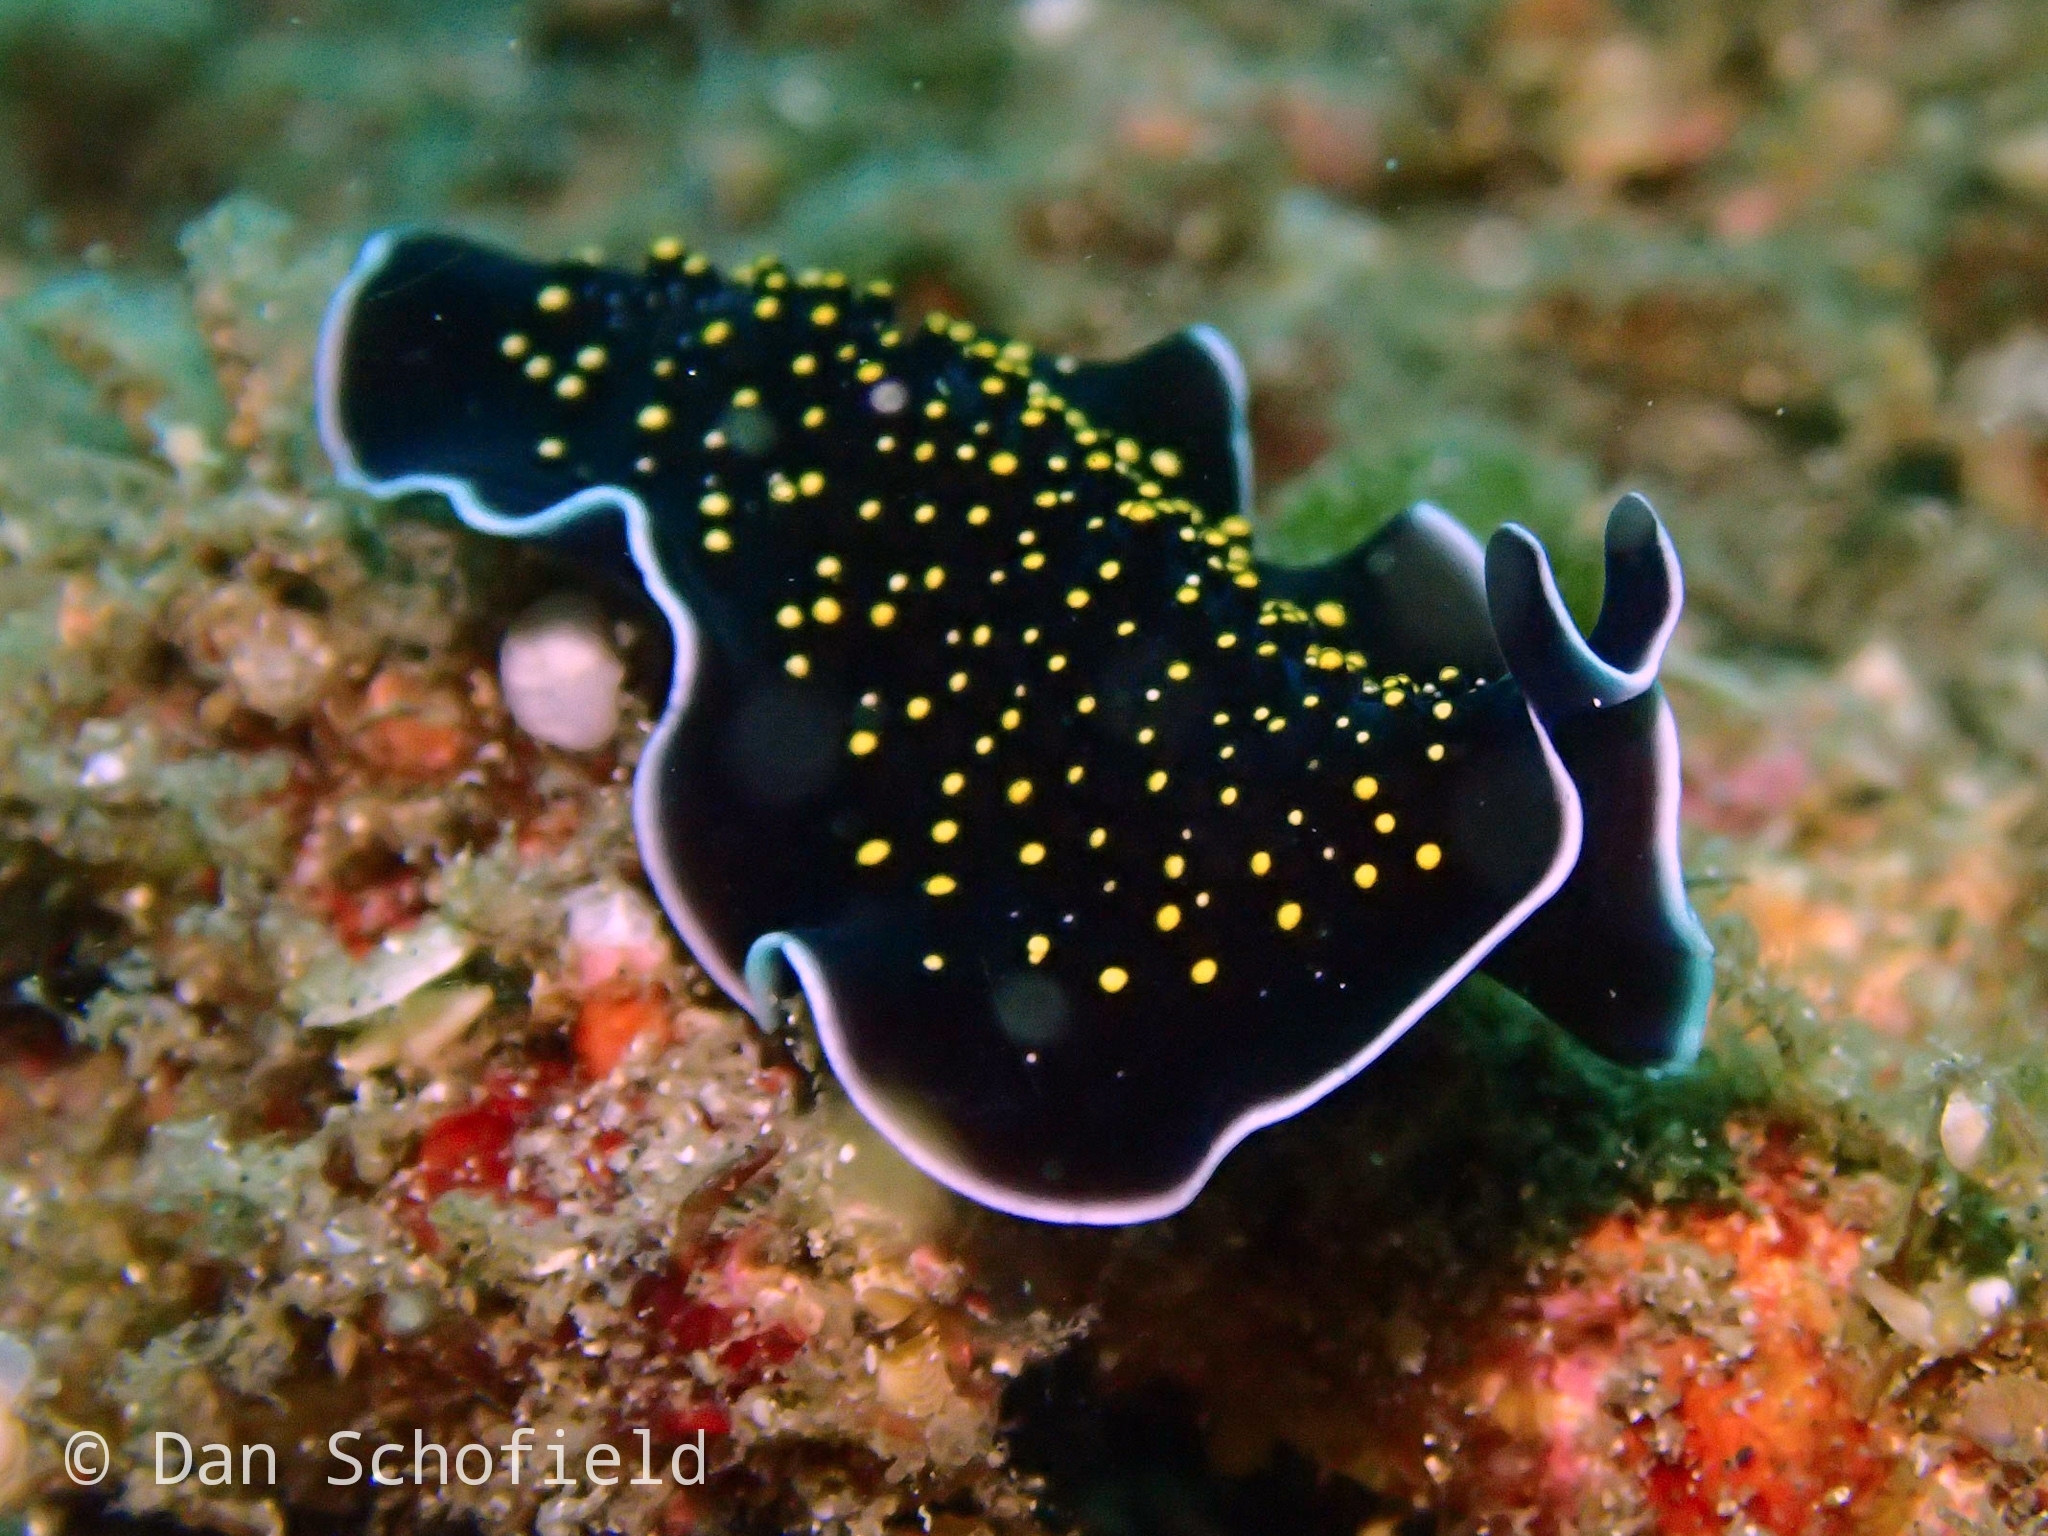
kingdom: Animalia
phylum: Platyhelminthes
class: Turbellaria
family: Pseudocerotidae
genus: Thysanozoon
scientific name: Thysanozoon nigropapillosum
